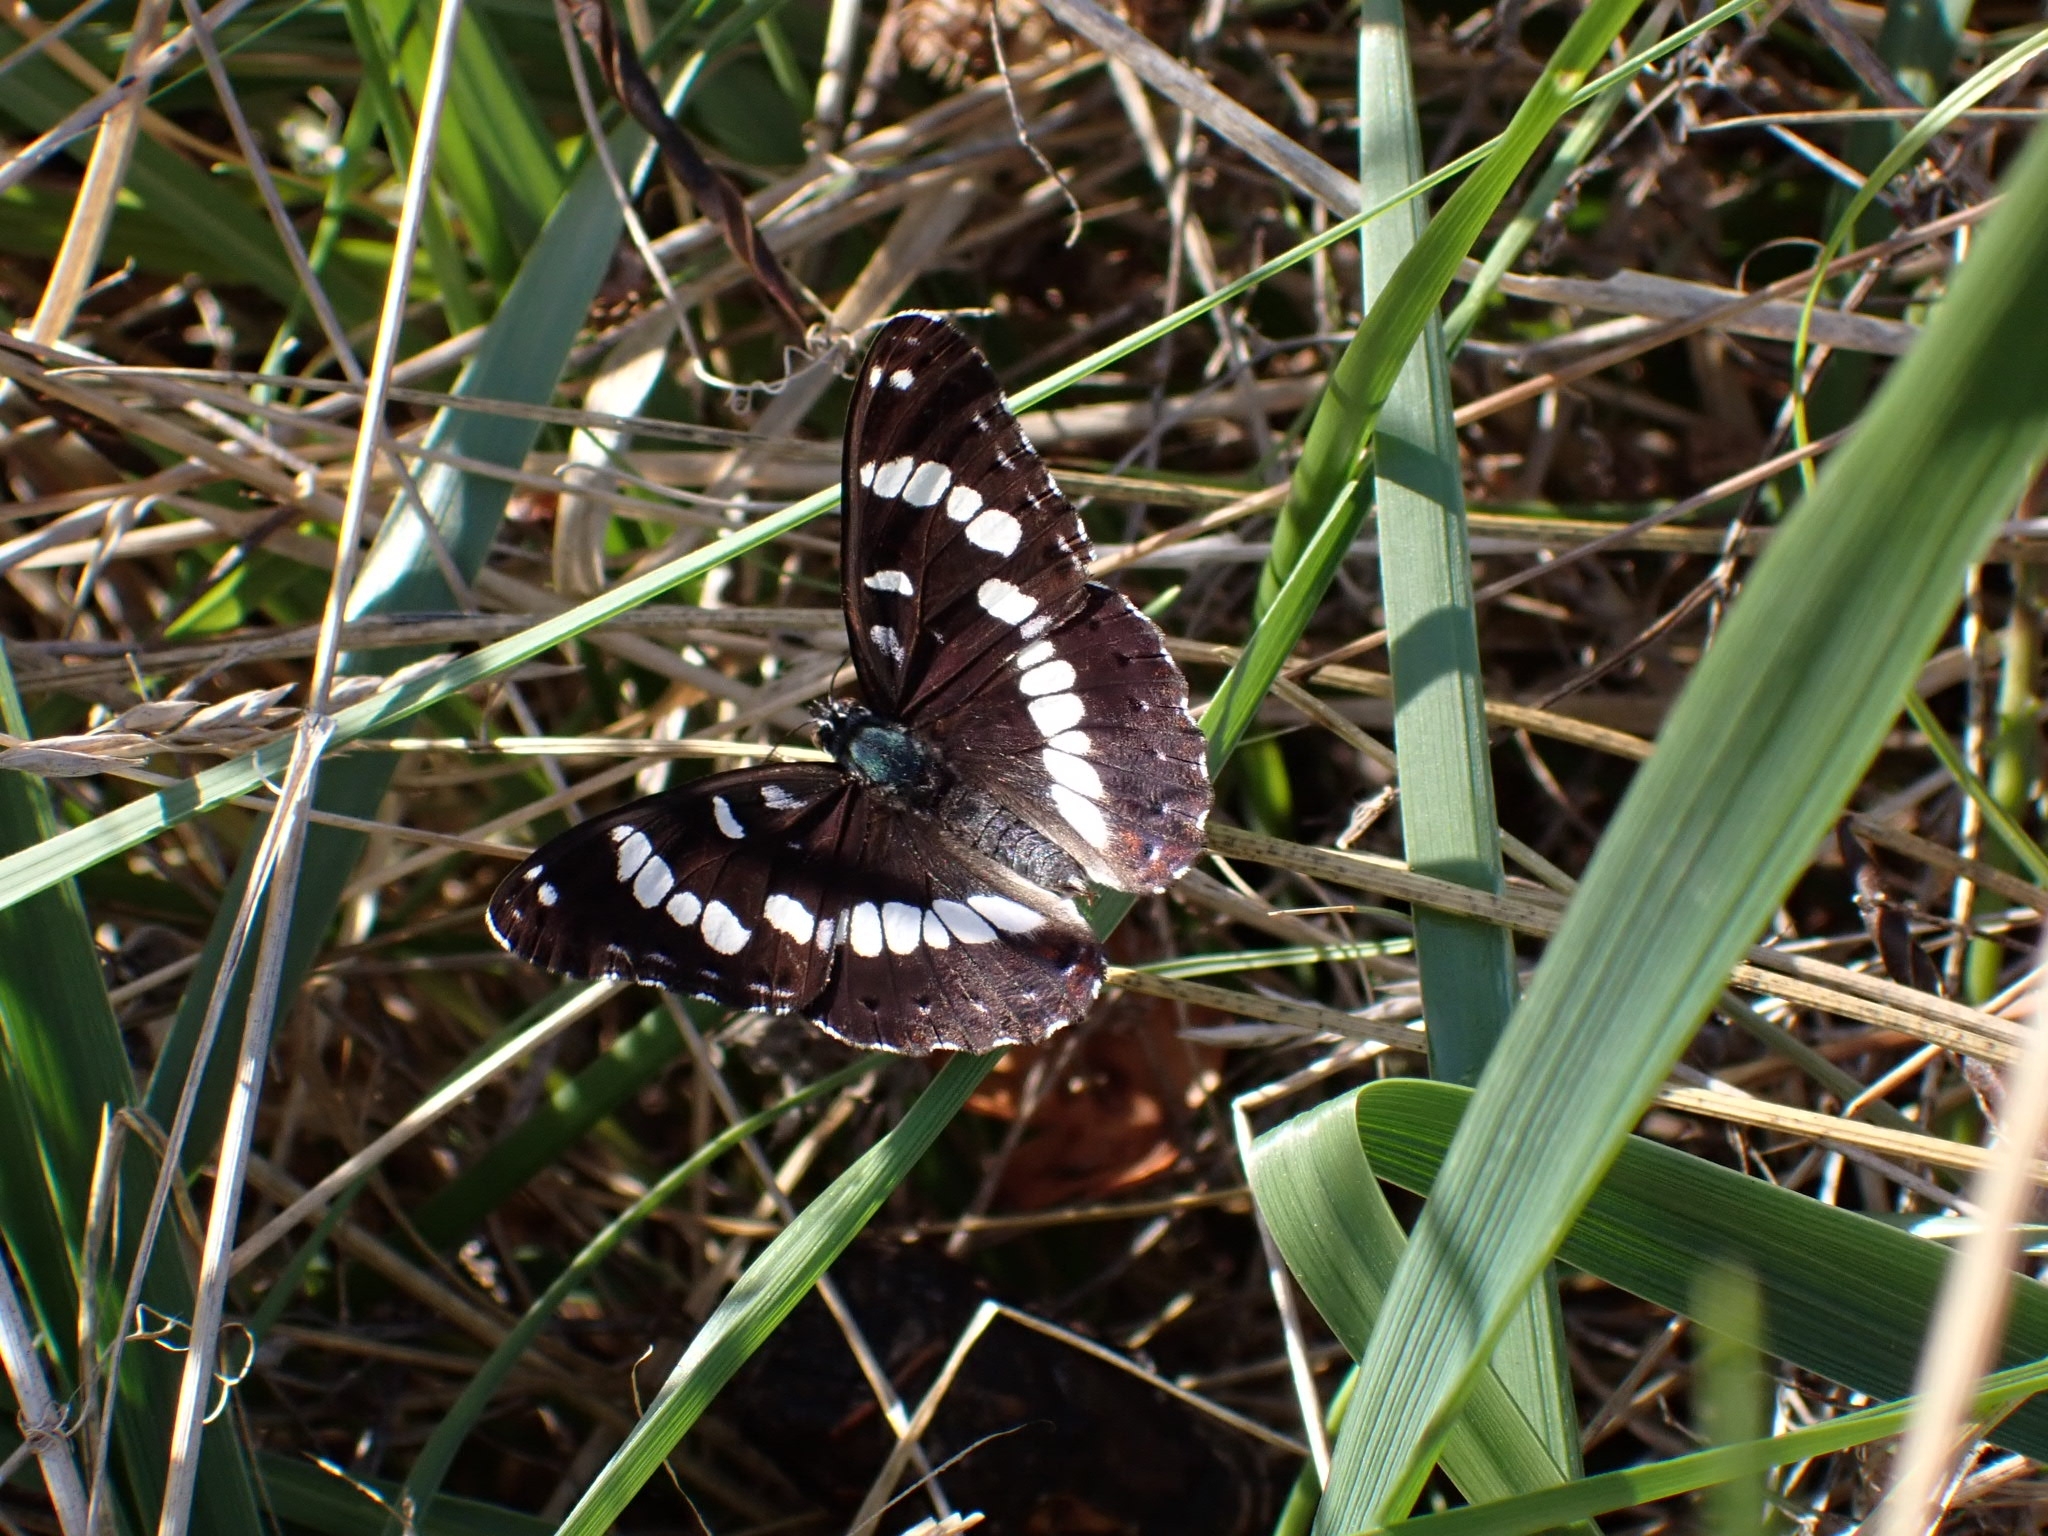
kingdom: Animalia
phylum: Arthropoda
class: Insecta
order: Lepidoptera
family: Nymphalidae
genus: Limenitis
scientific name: Limenitis reducta
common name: Southern white admiral
